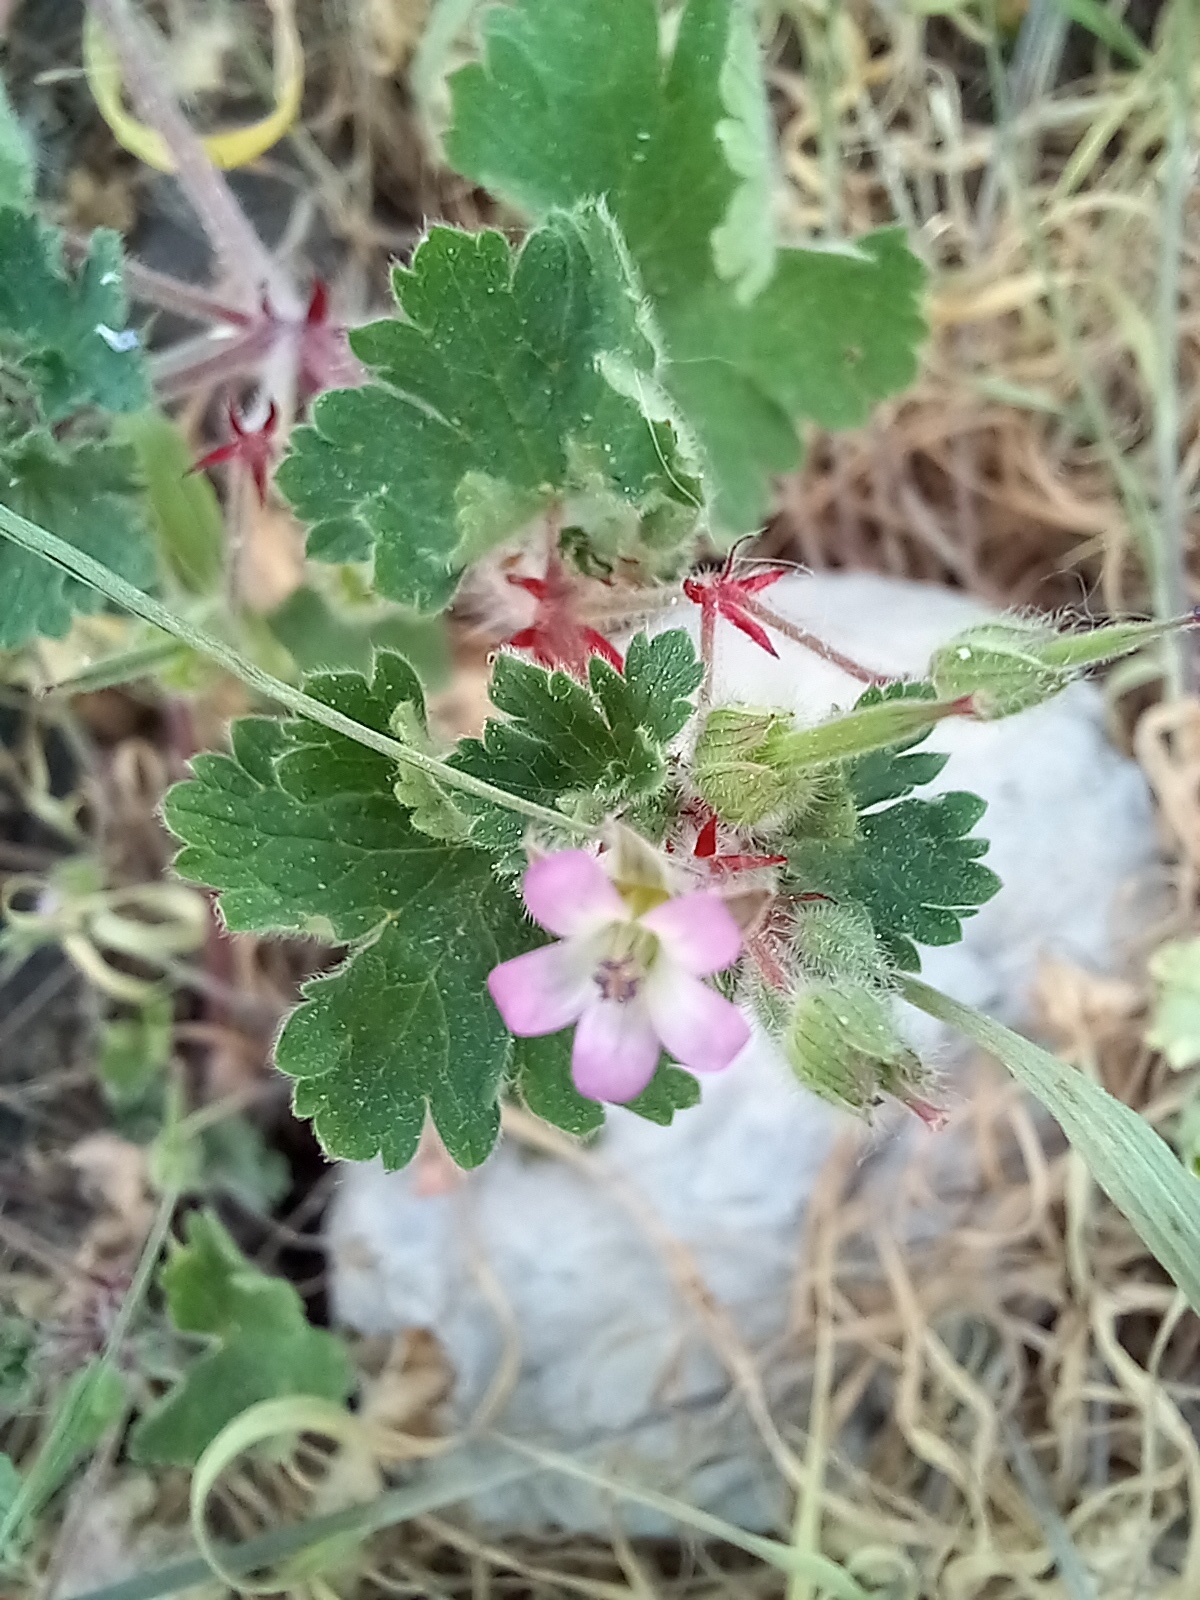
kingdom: Plantae
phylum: Tracheophyta
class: Magnoliopsida
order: Geraniales
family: Geraniaceae
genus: Geranium
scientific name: Geranium rotundifolium
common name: Round-leaved crane's-bill
